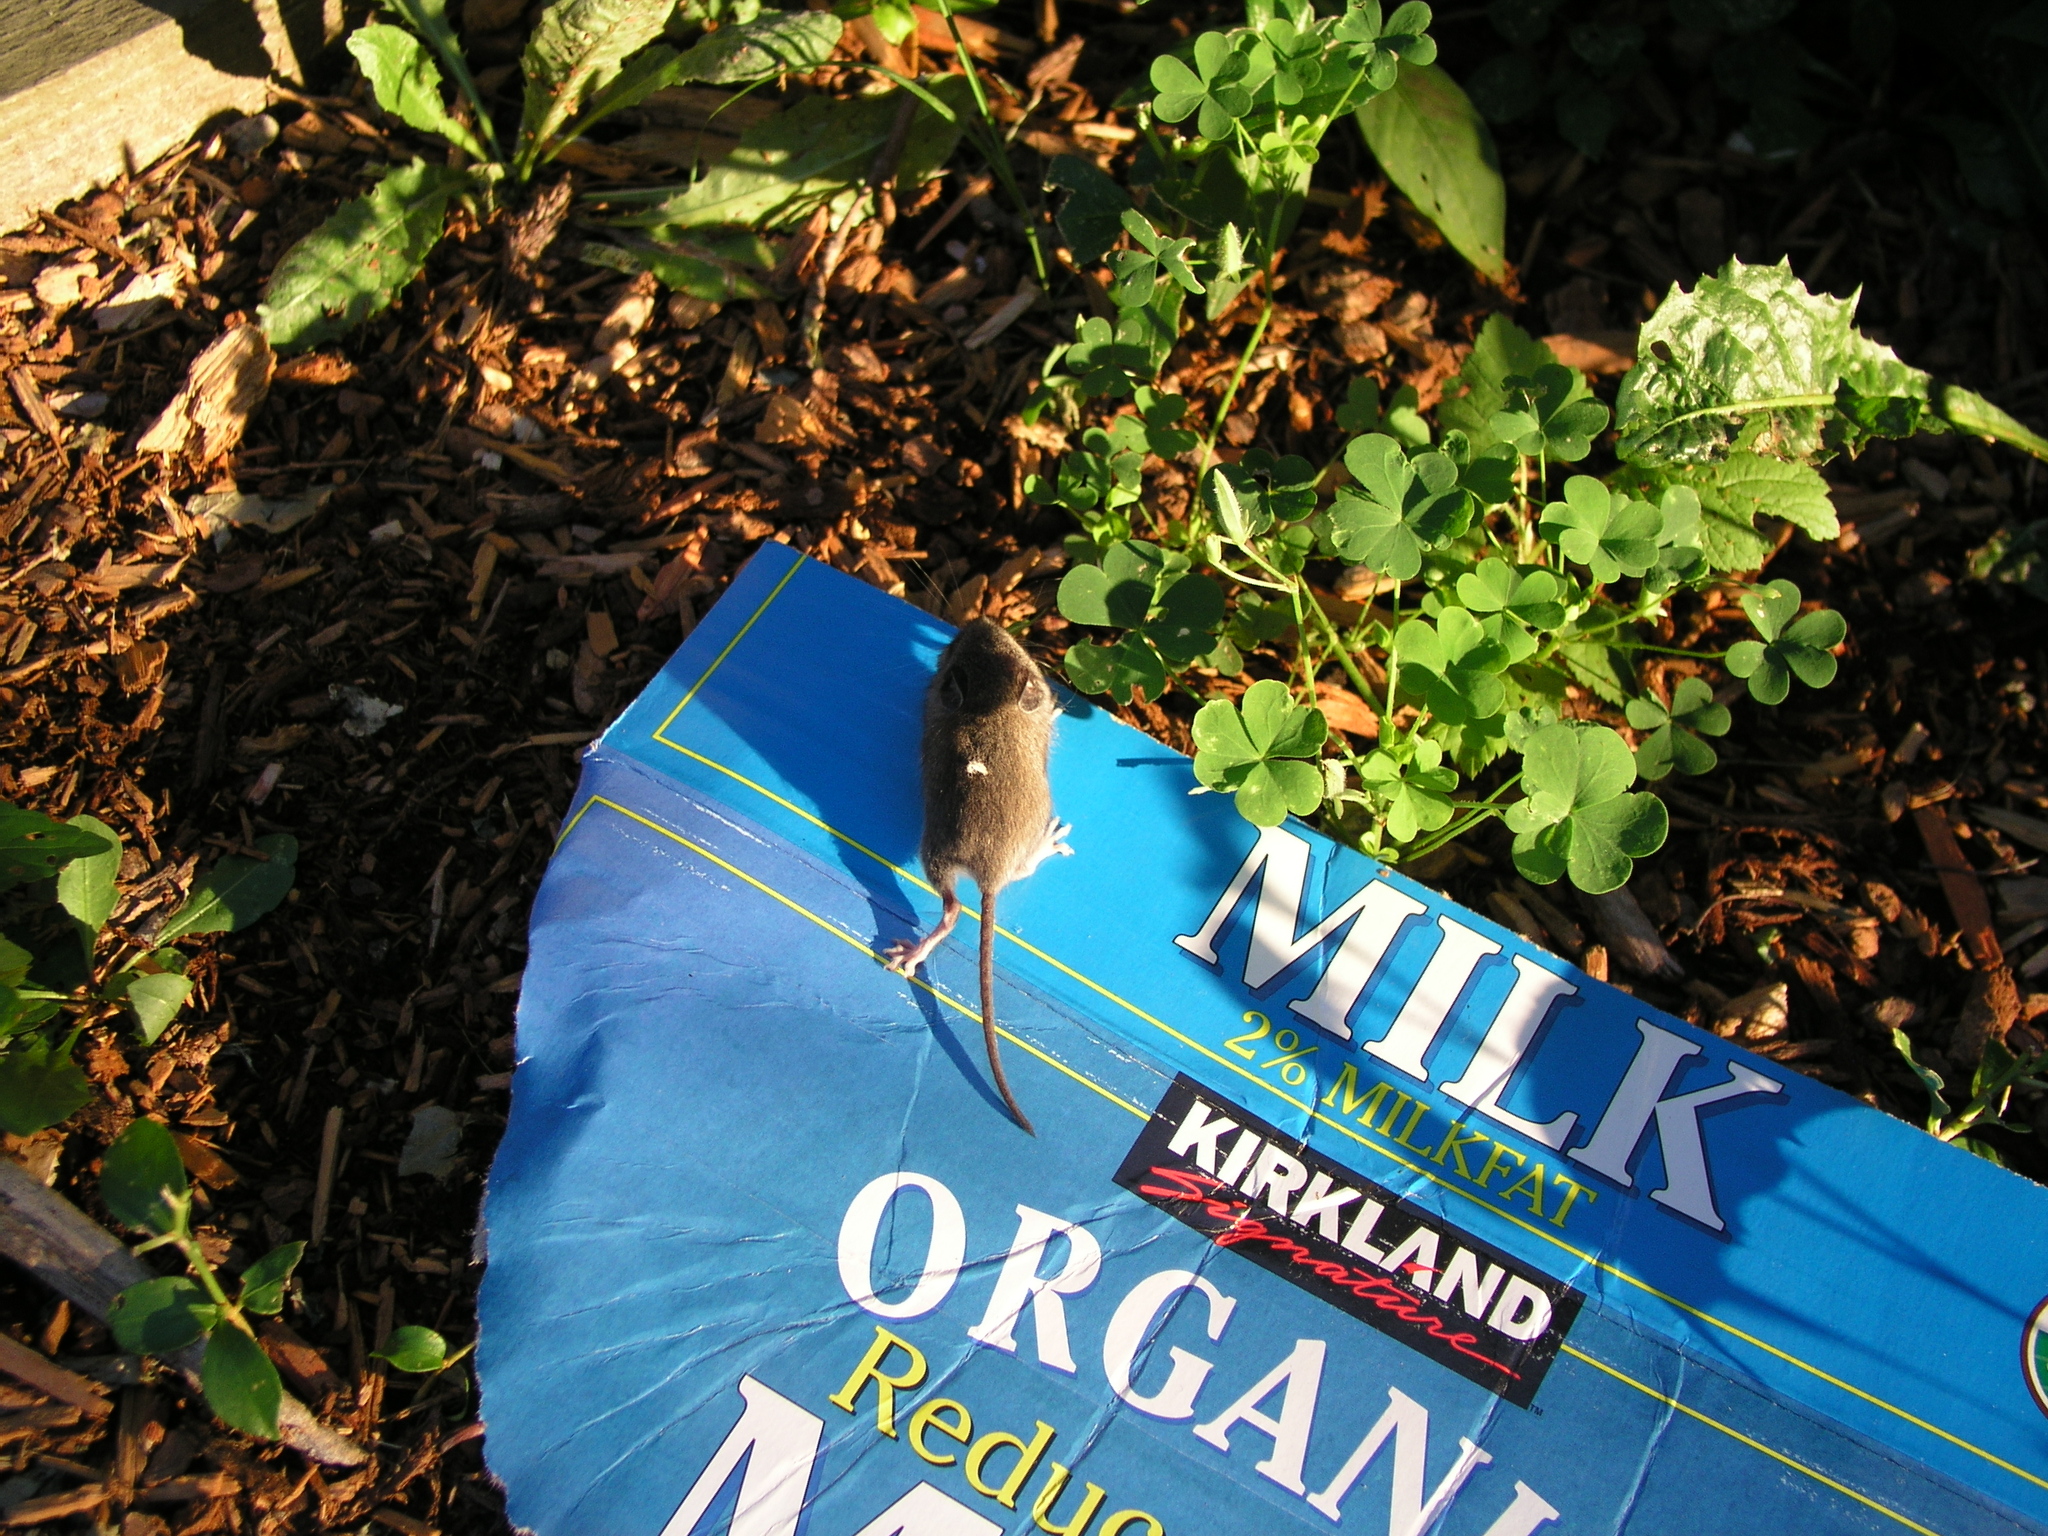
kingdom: Animalia
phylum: Chordata
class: Mammalia
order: Rodentia
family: Muridae
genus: Mus
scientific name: Mus musculus
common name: House mouse
